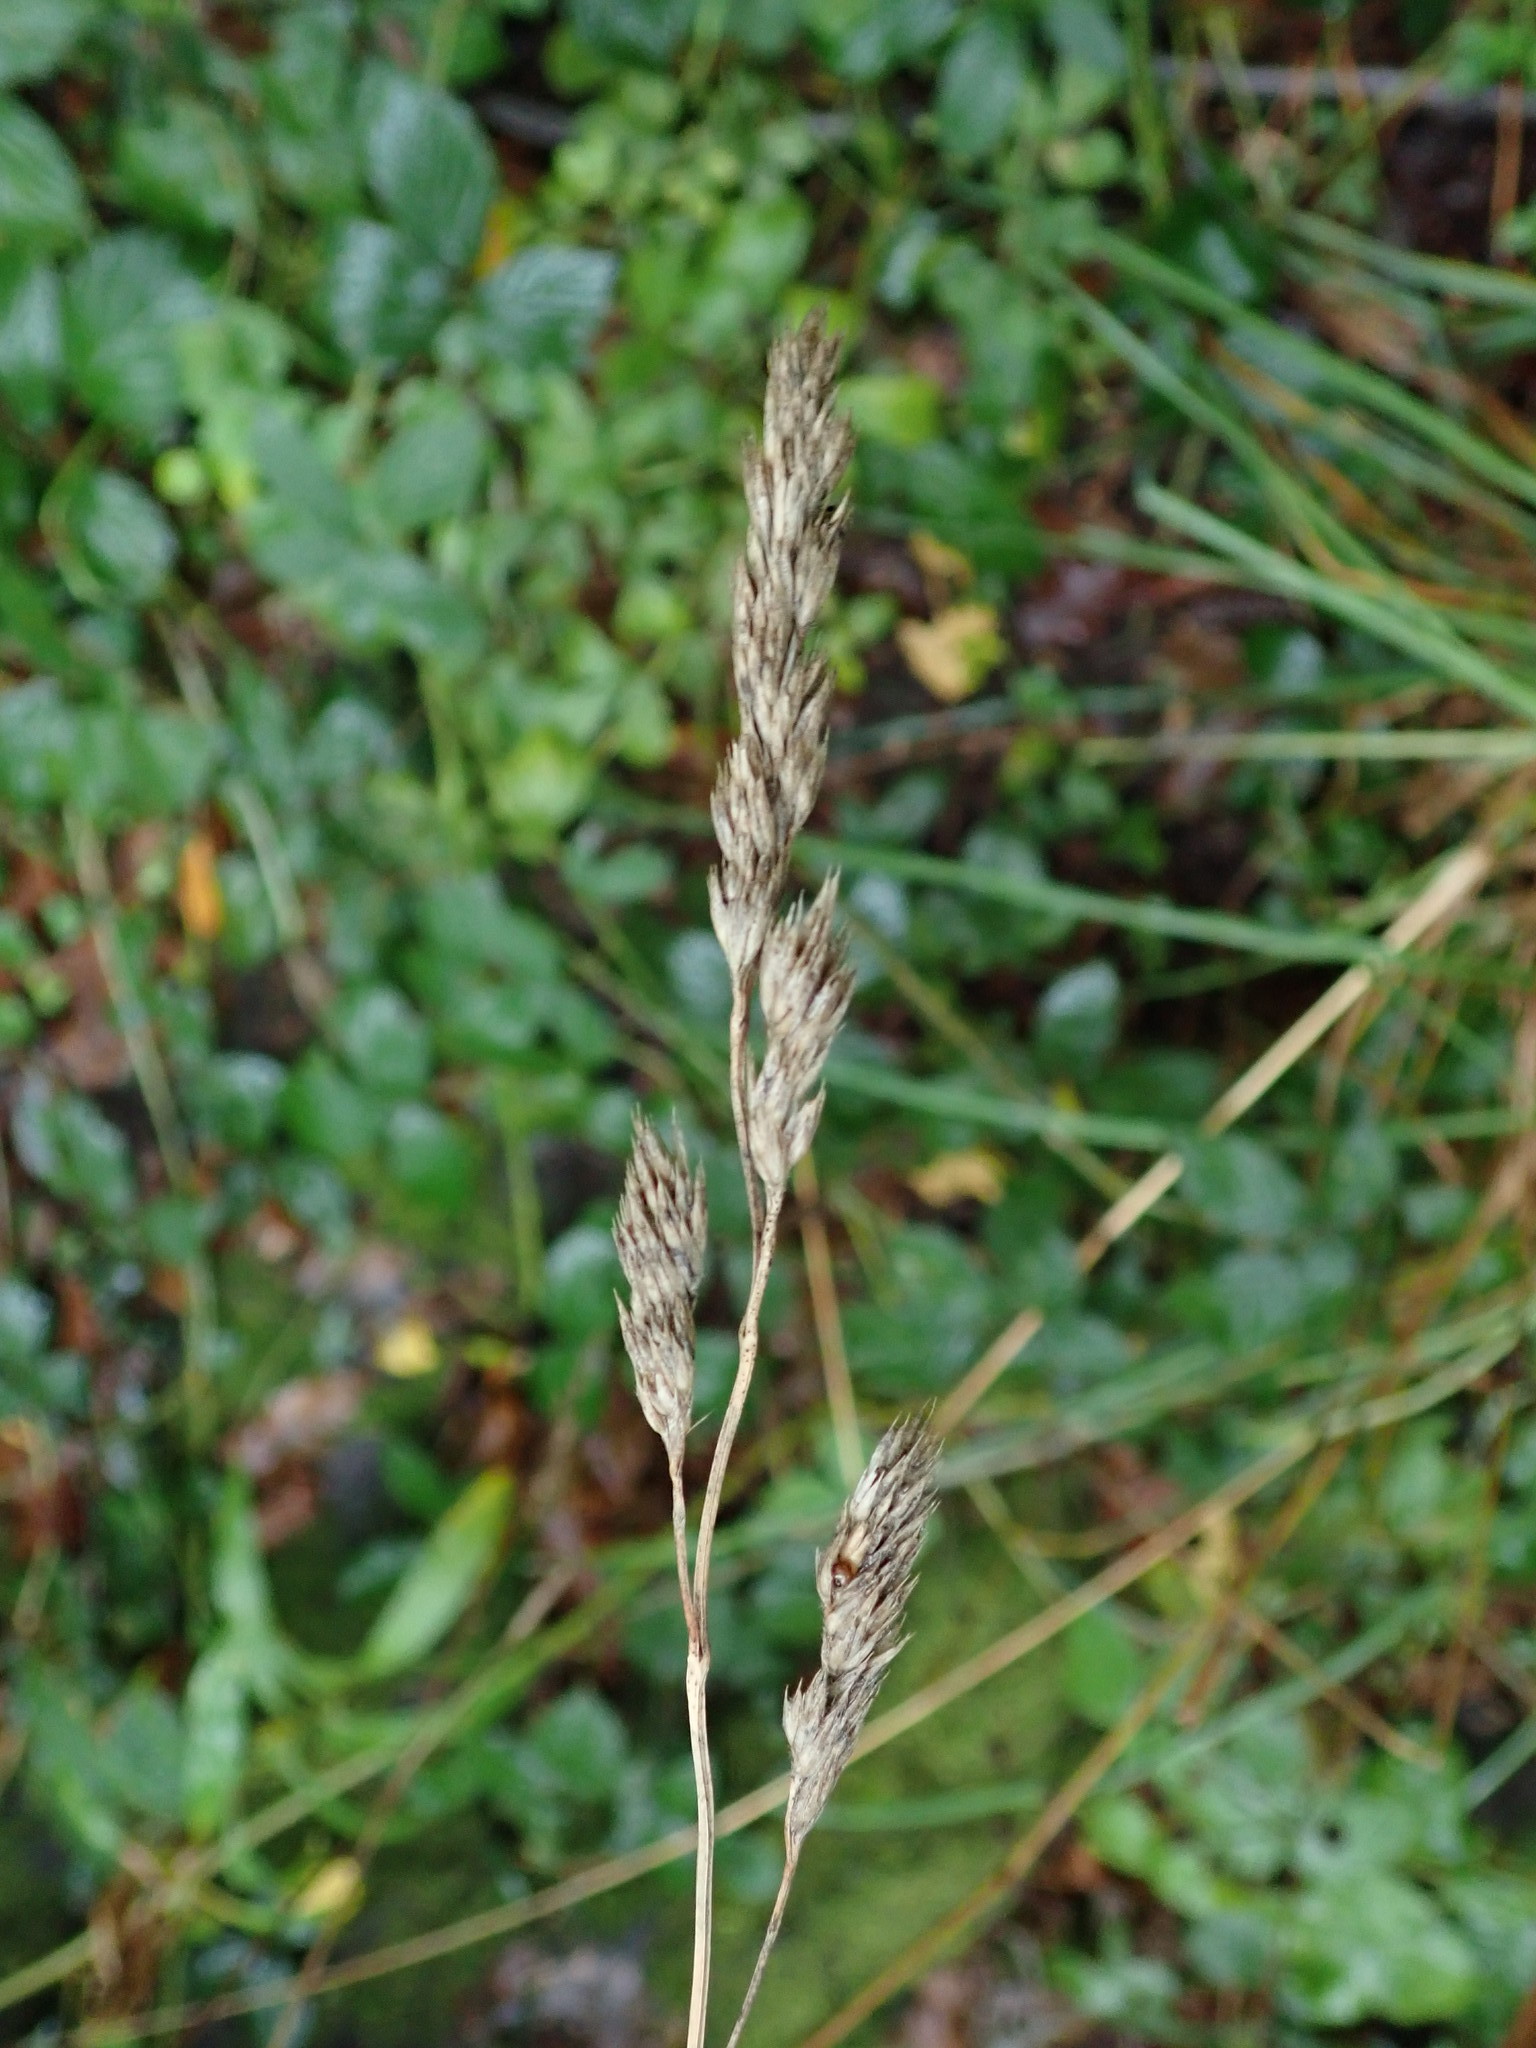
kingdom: Plantae
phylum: Tracheophyta
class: Liliopsida
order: Poales
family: Poaceae
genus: Dactylis
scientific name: Dactylis glomerata
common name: Orchardgrass
